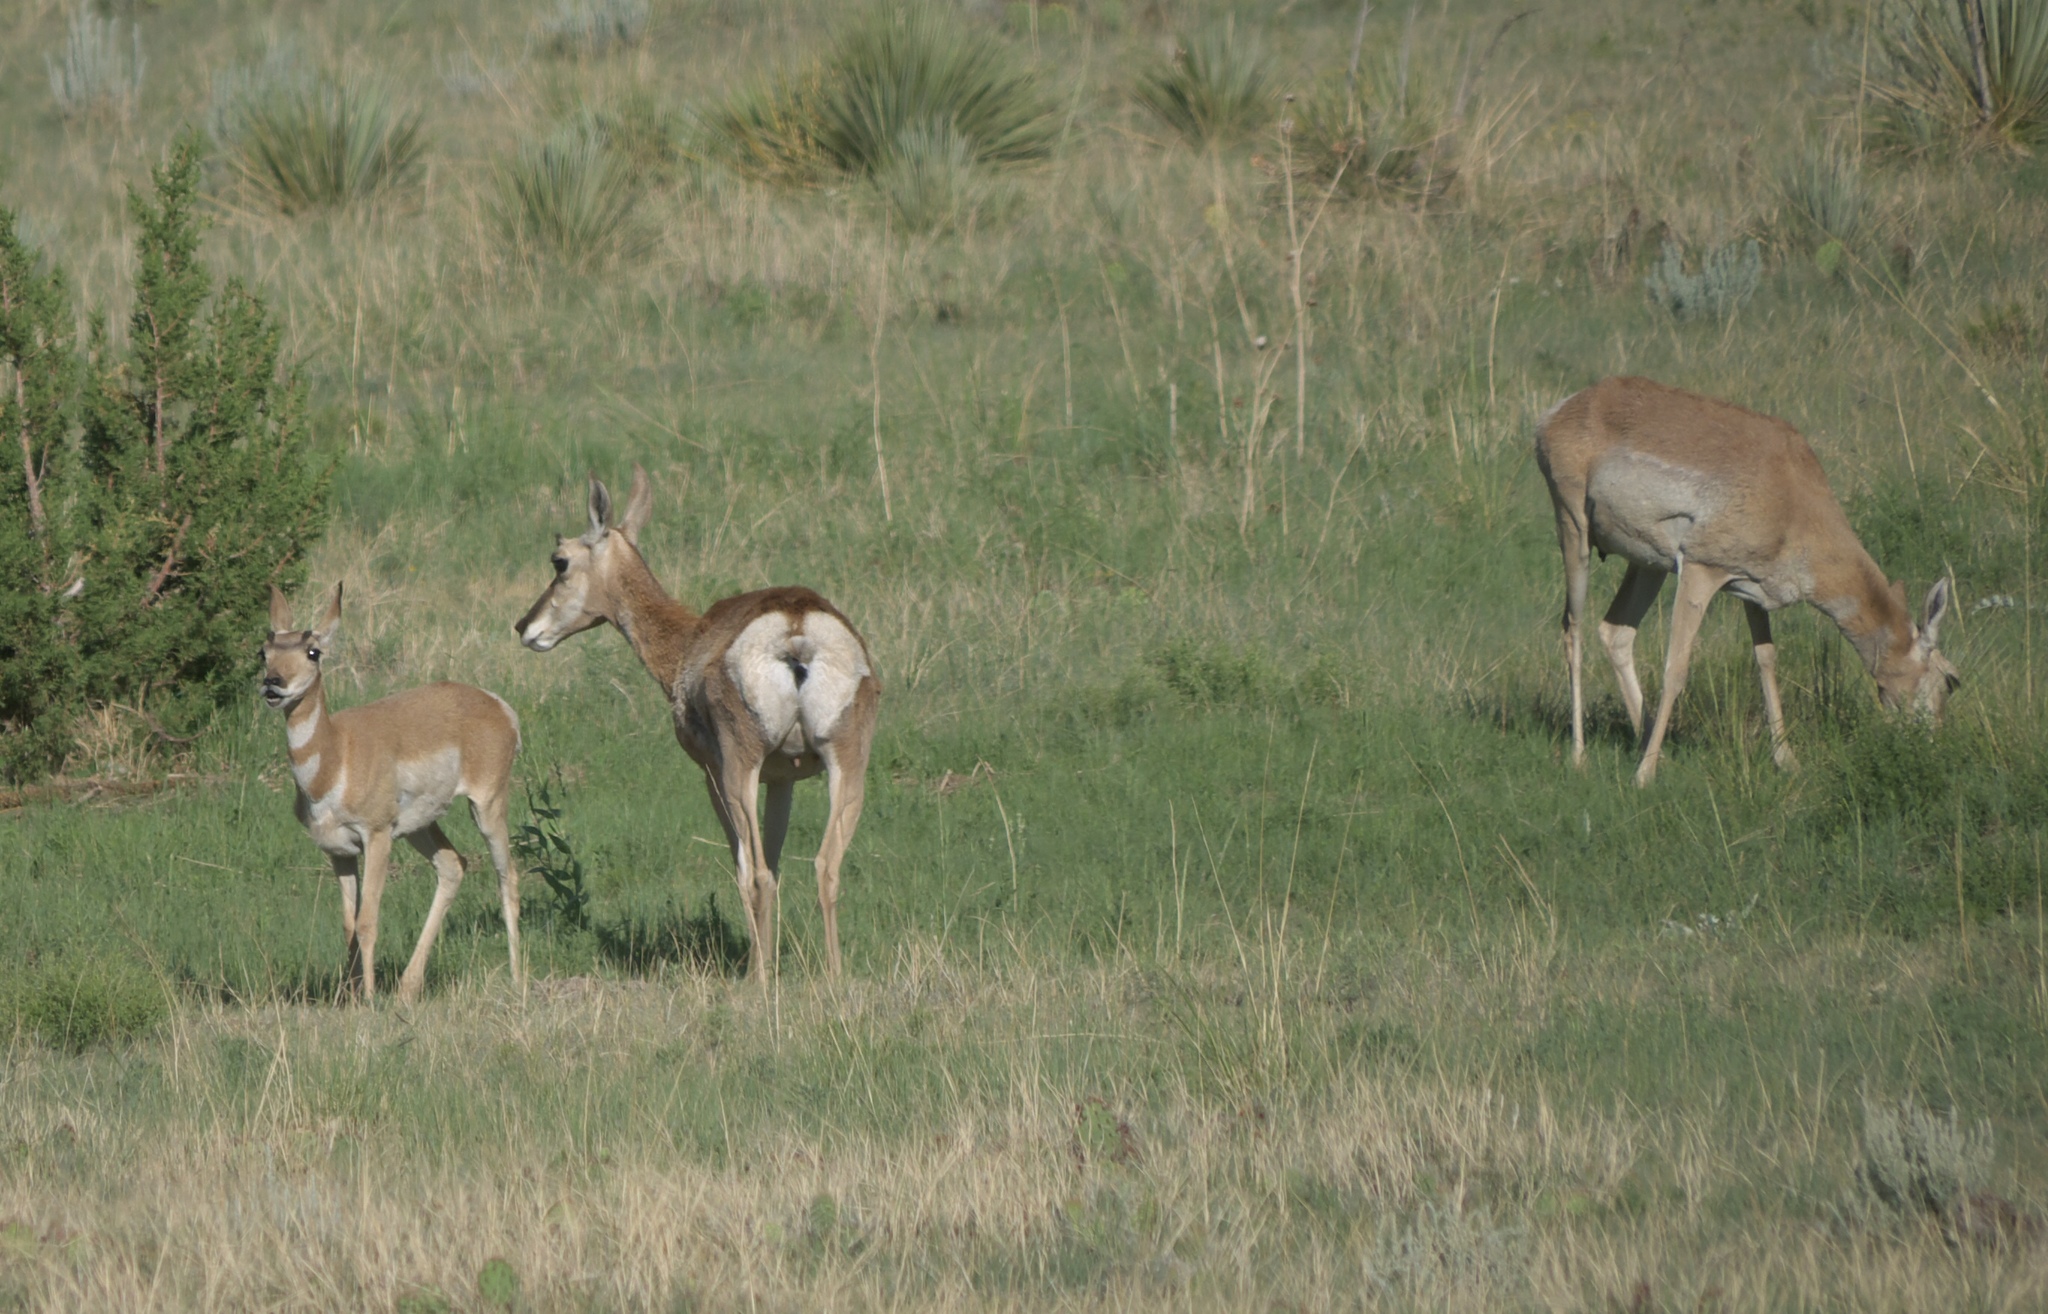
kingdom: Animalia
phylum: Chordata
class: Mammalia
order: Artiodactyla
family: Antilocapridae
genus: Antilocapra
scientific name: Antilocapra americana
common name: Pronghorn
